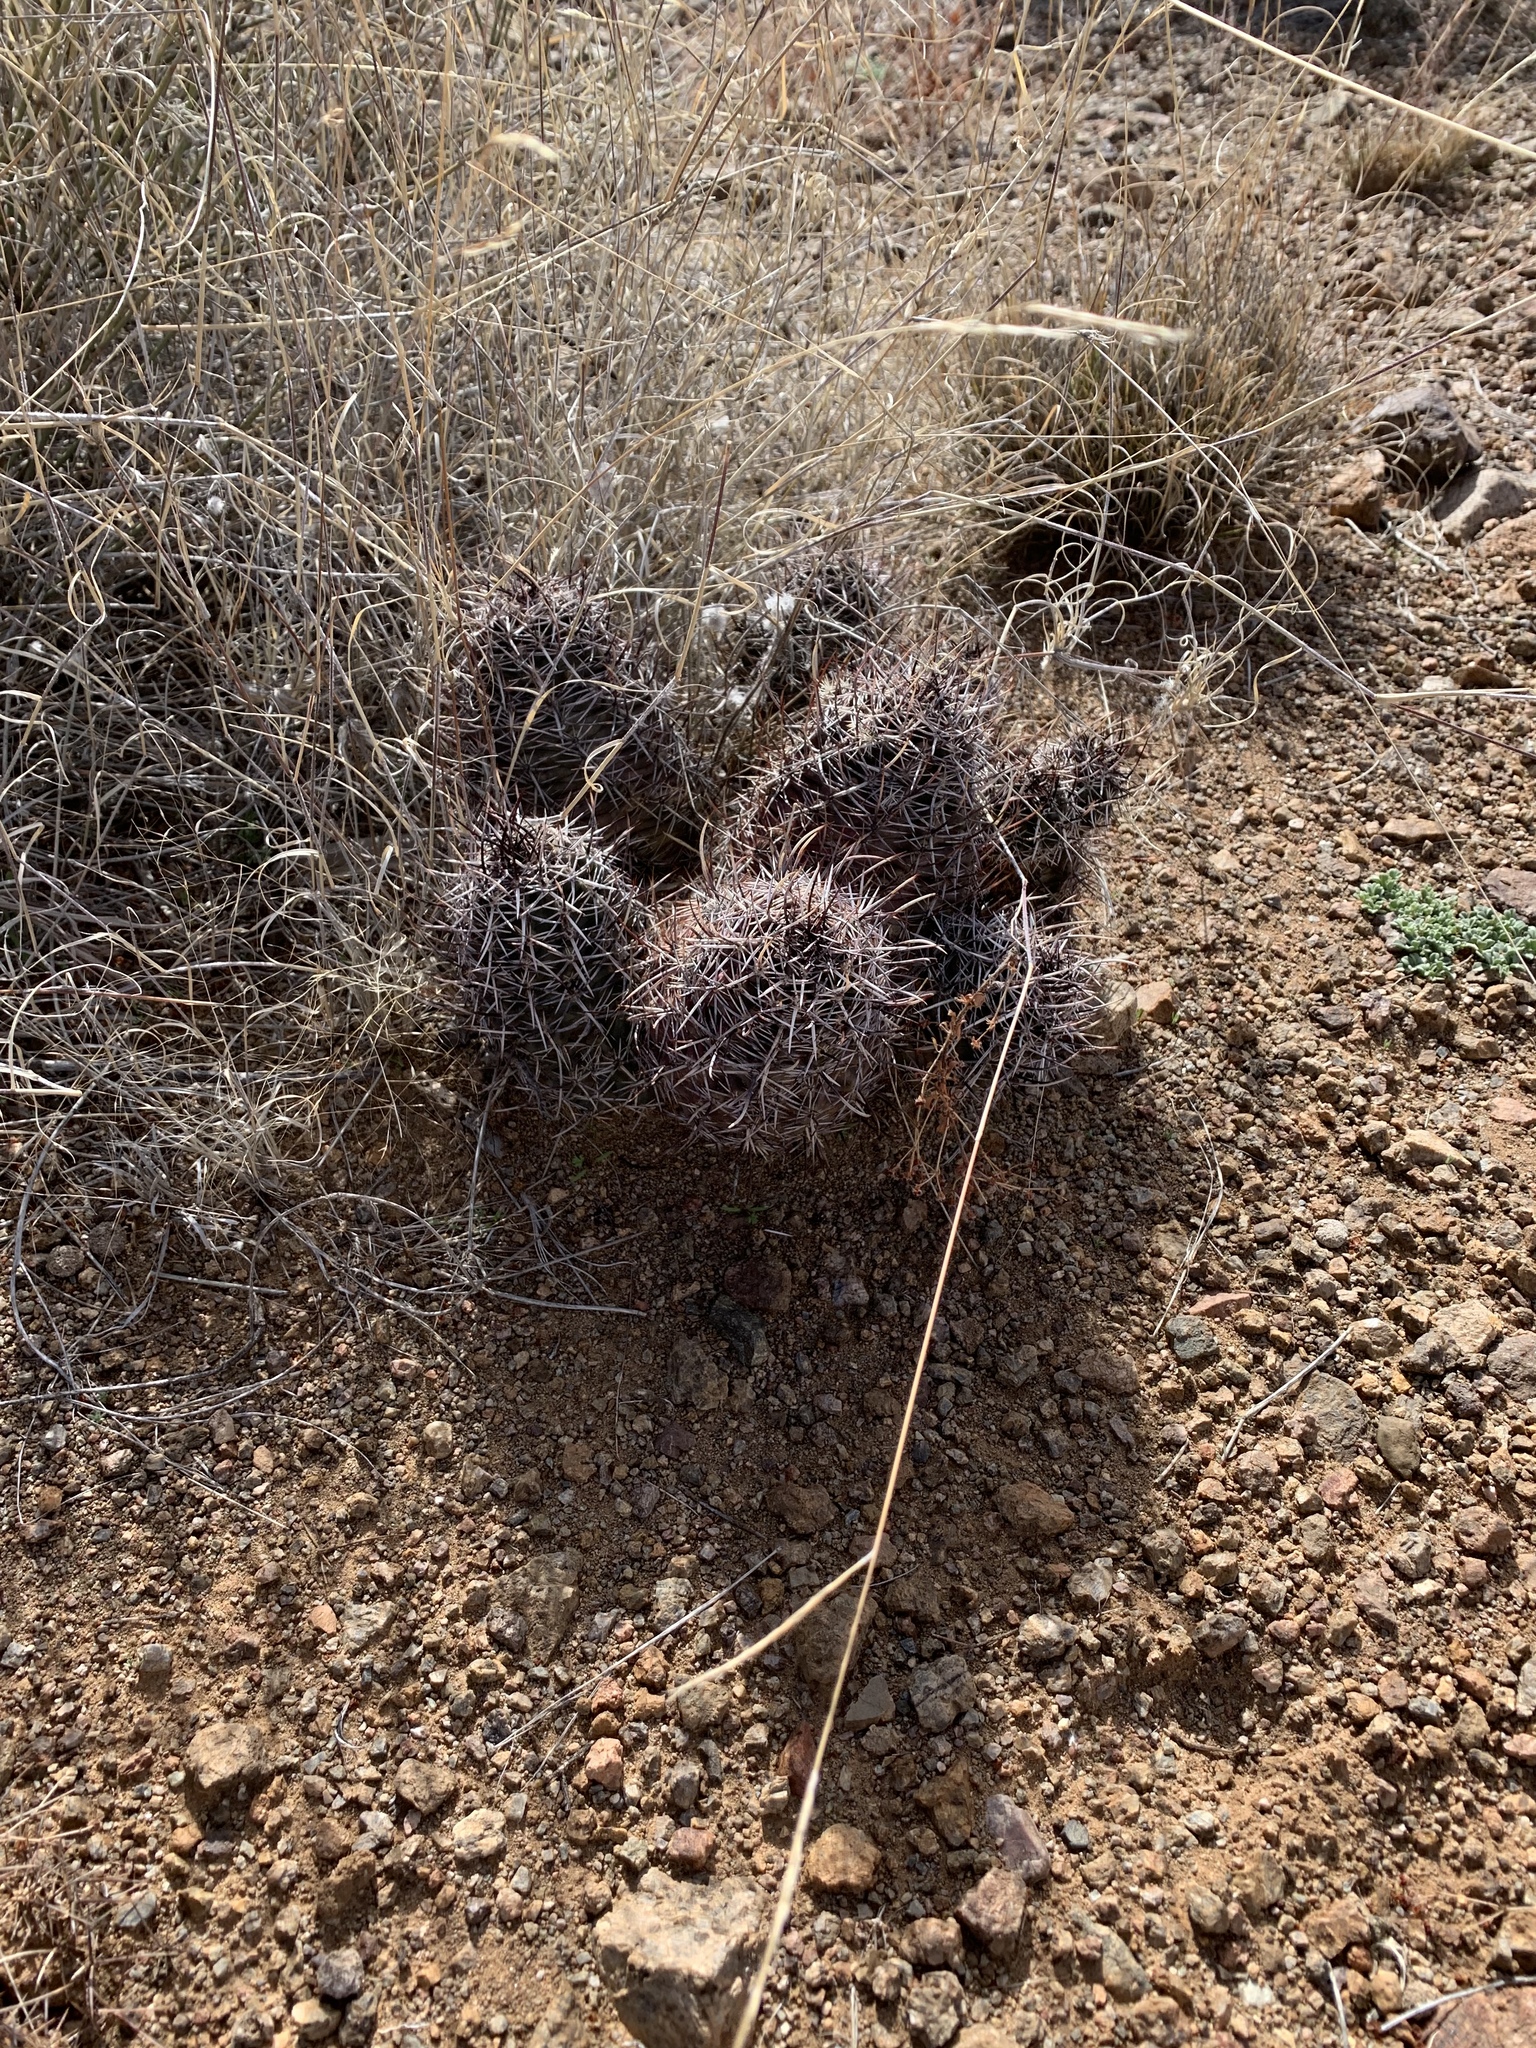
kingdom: Plantae
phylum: Tracheophyta
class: Magnoliopsida
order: Caryophyllales
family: Cactaceae
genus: Echinocereus
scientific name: Echinocereus fendleri
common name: Fendler's hedgehog cactus
